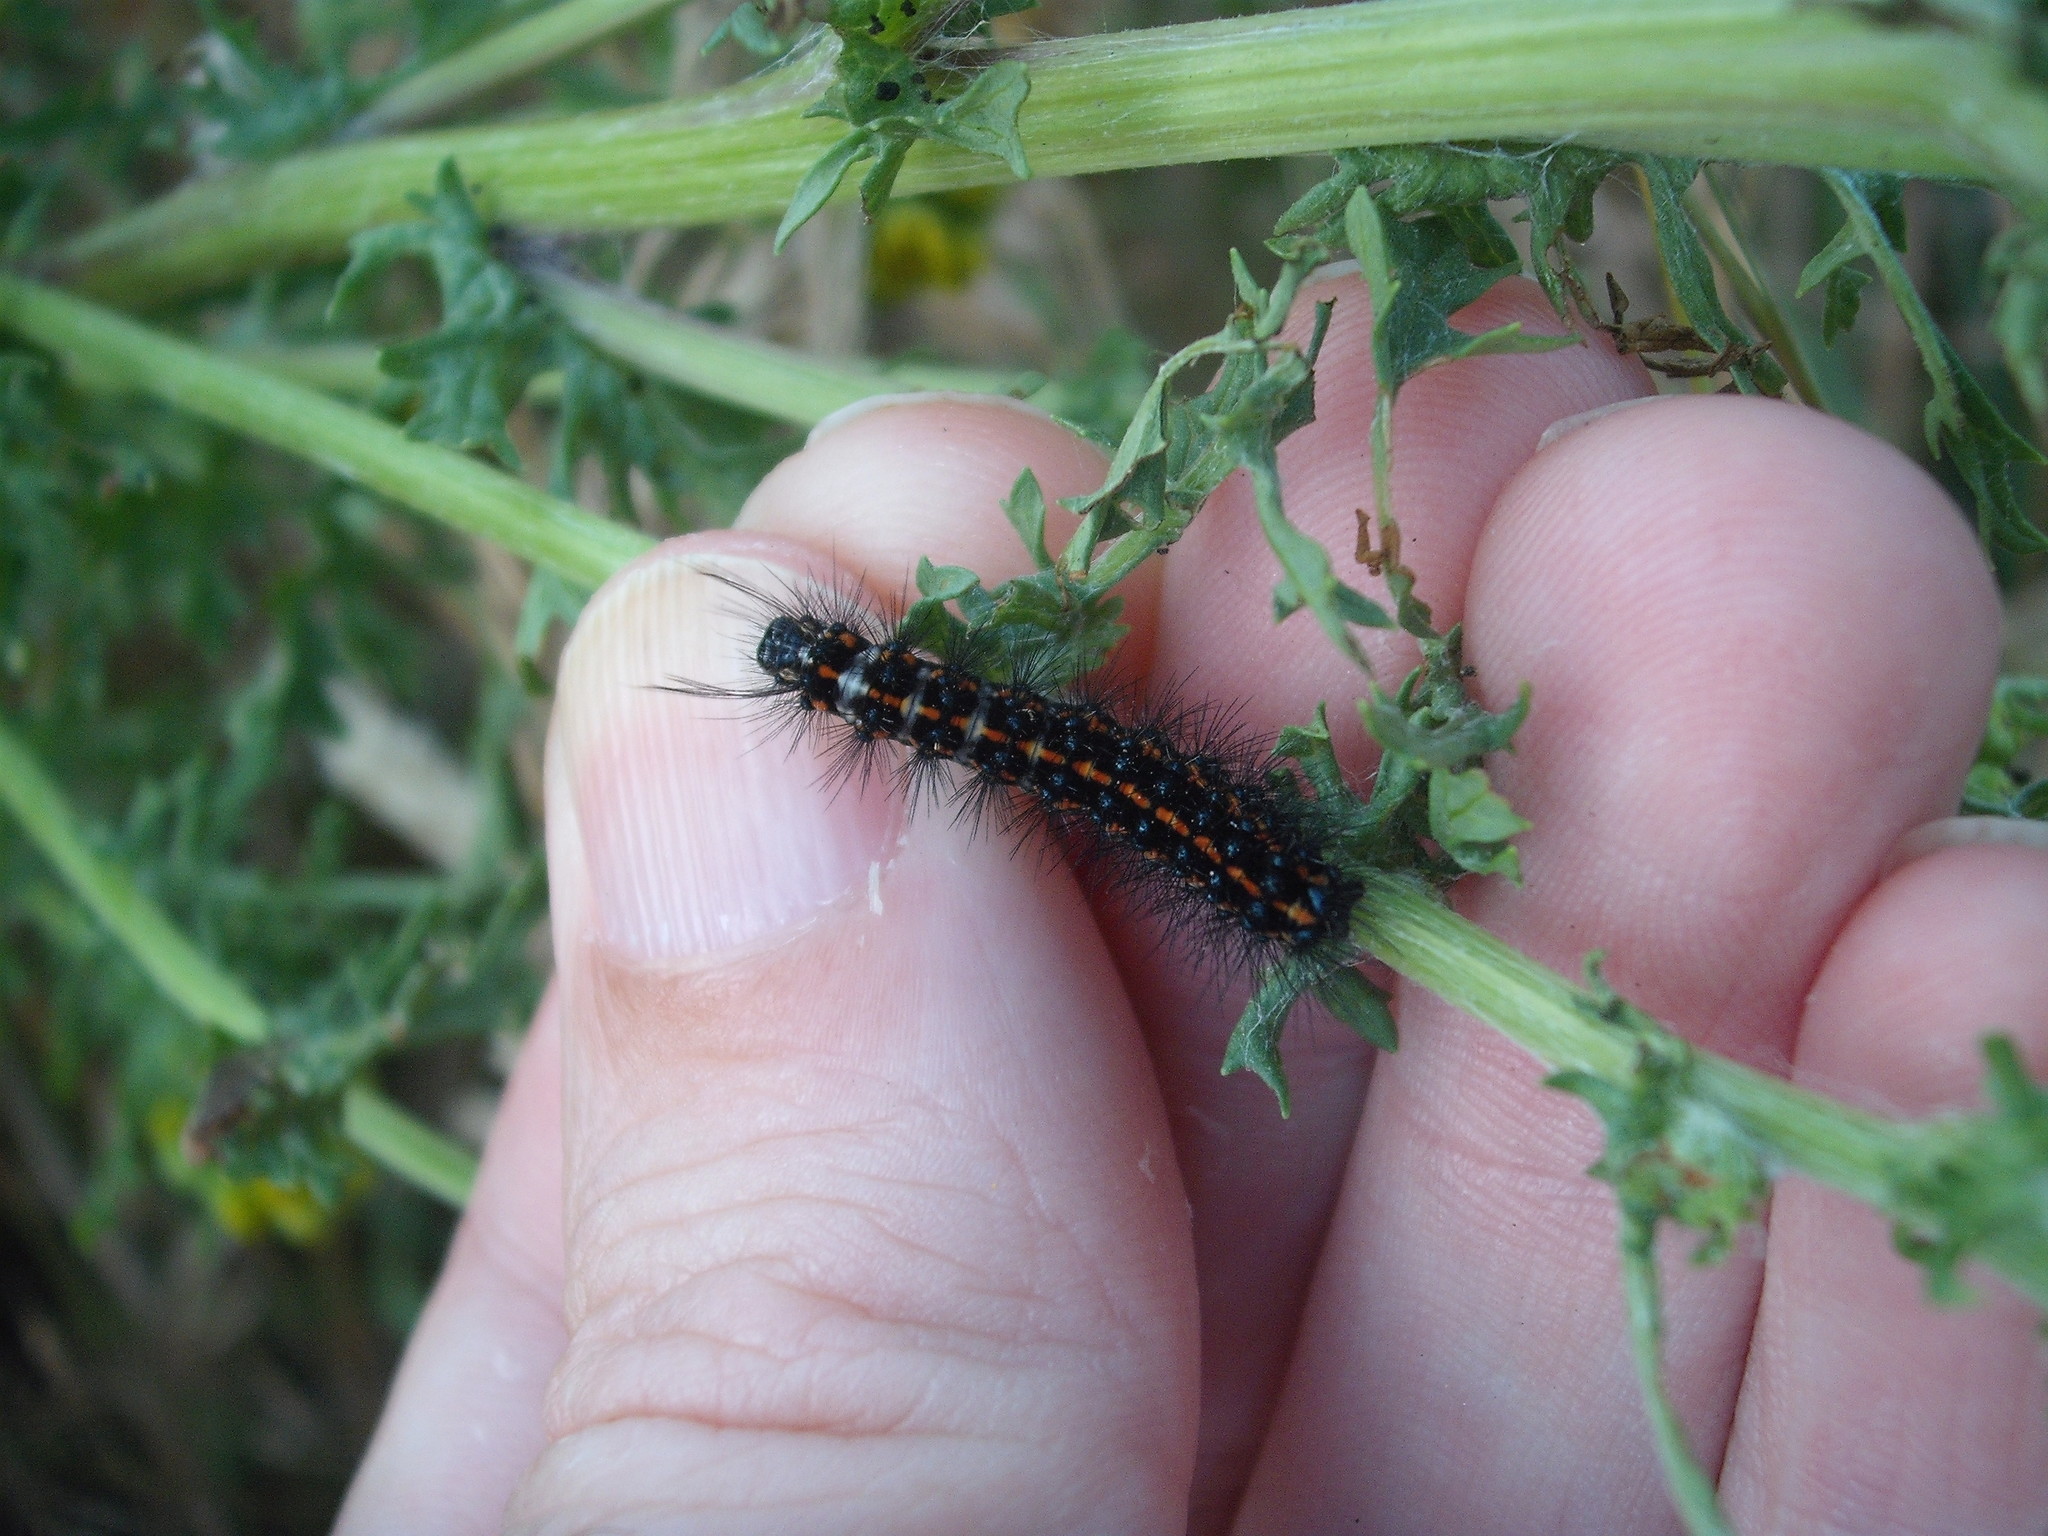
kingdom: Animalia
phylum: Arthropoda
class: Insecta
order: Lepidoptera
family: Erebidae
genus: Nyctemera
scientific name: Nyctemera amicus
